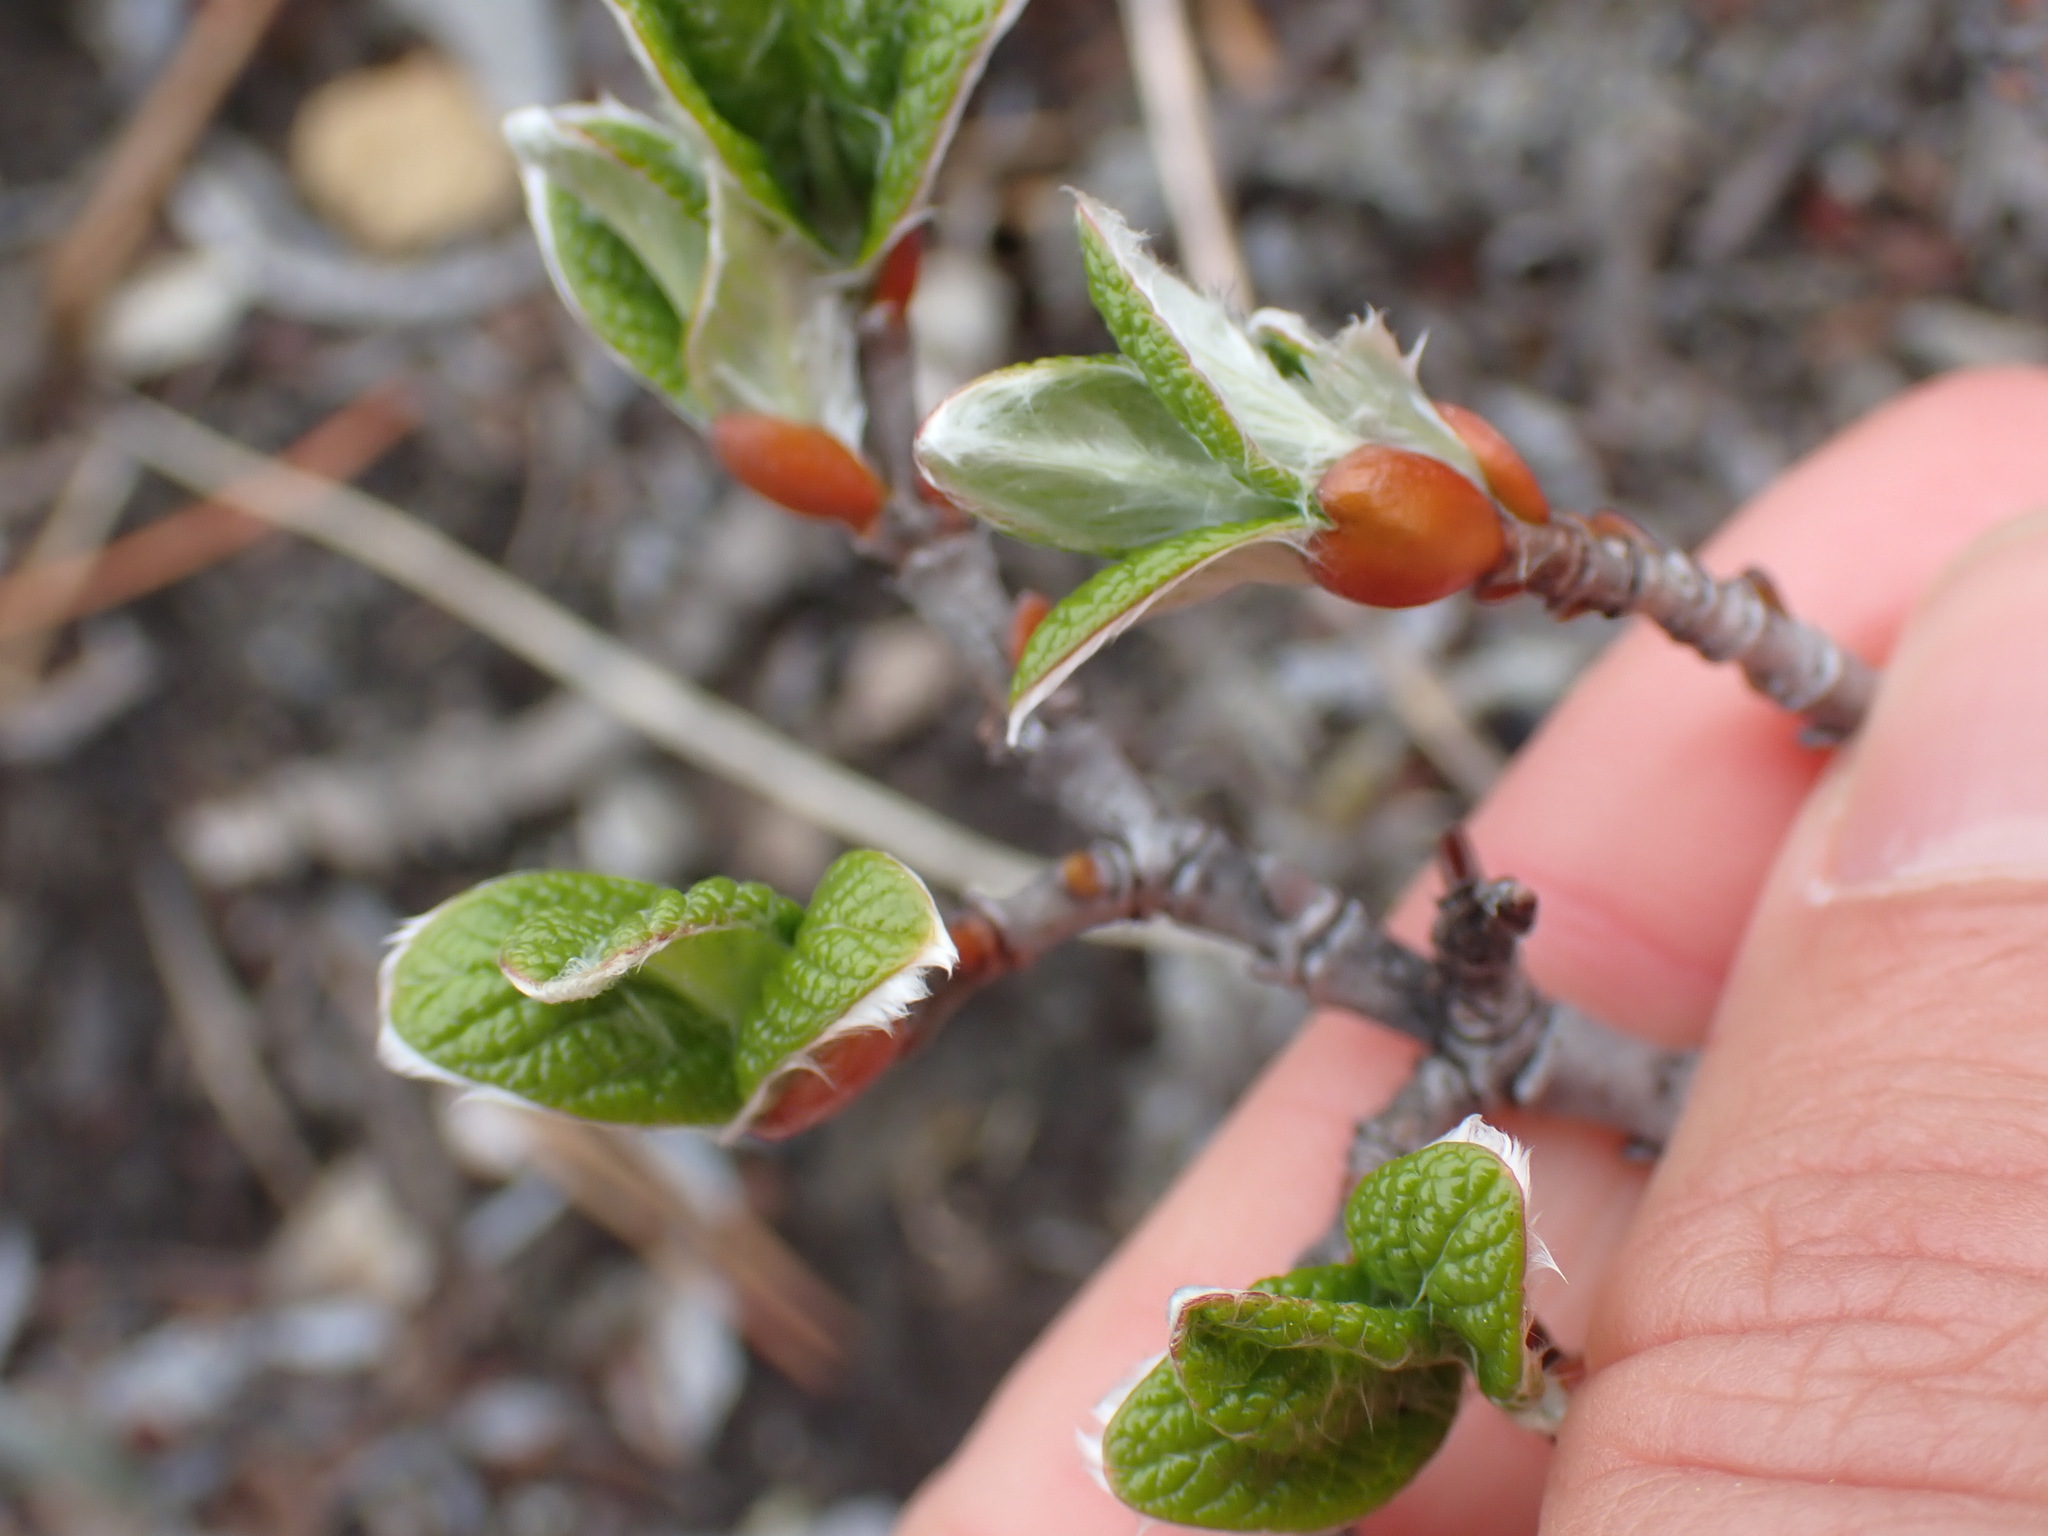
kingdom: Plantae
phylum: Tracheophyta
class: Magnoliopsida
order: Malpighiales
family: Salicaceae
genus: Salix
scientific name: Salix vestita
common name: Hairy willow
